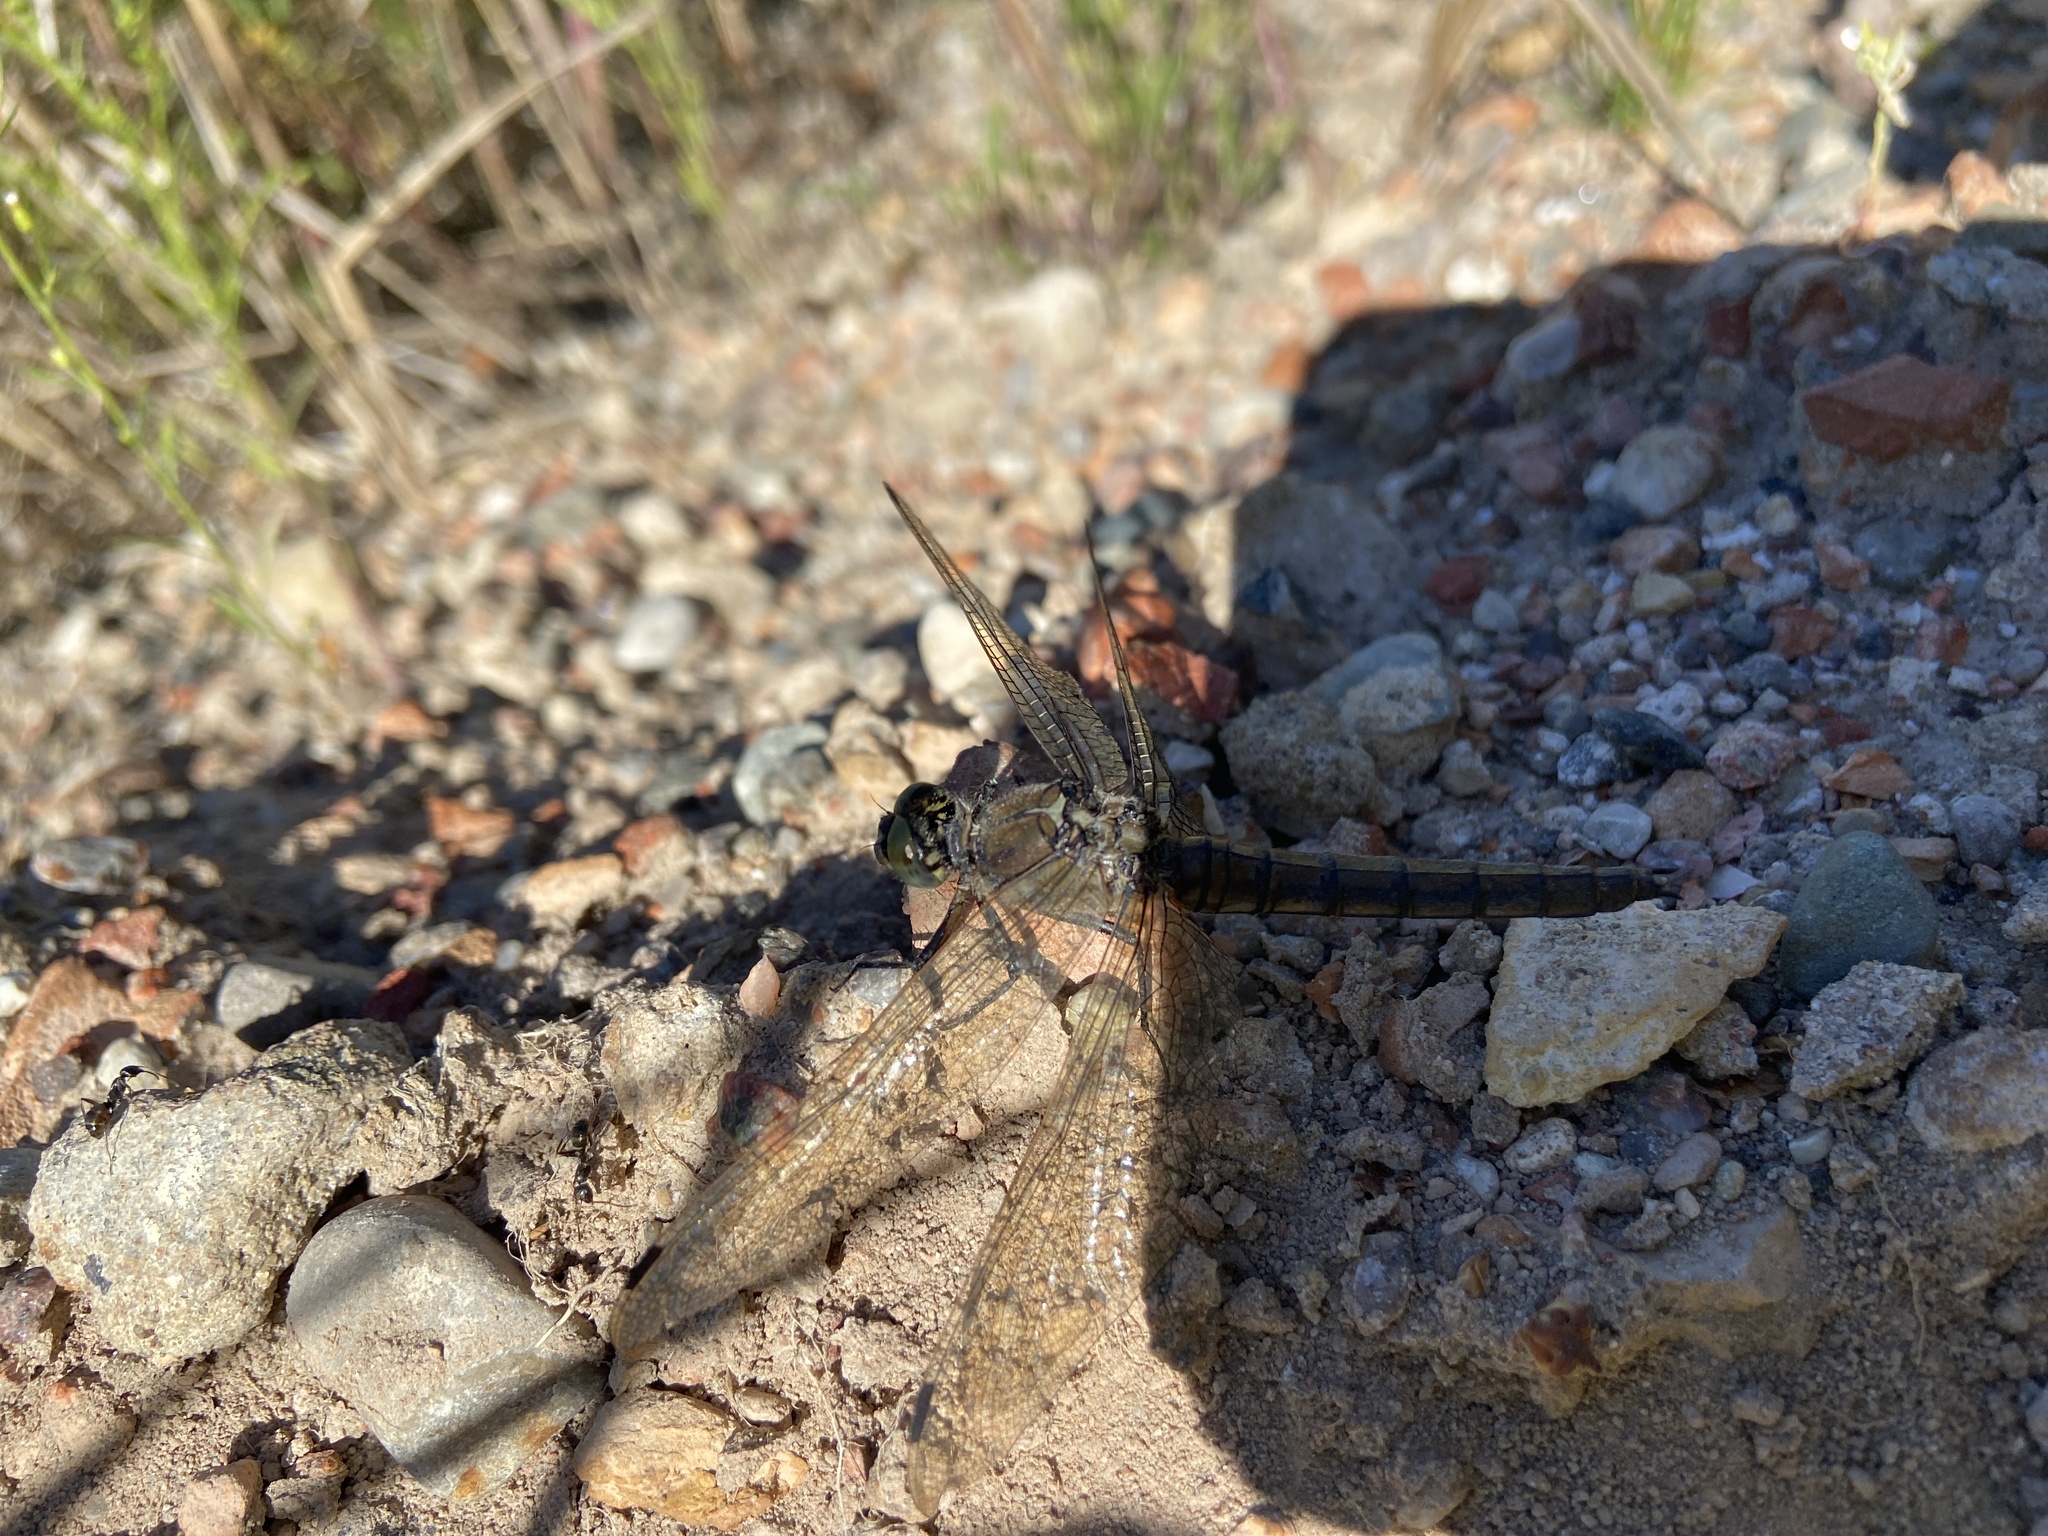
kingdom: Animalia
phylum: Arthropoda
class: Insecta
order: Odonata
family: Libellulidae
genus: Orthetrum
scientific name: Orthetrum cancellatum
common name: Black-tailed skimmer
